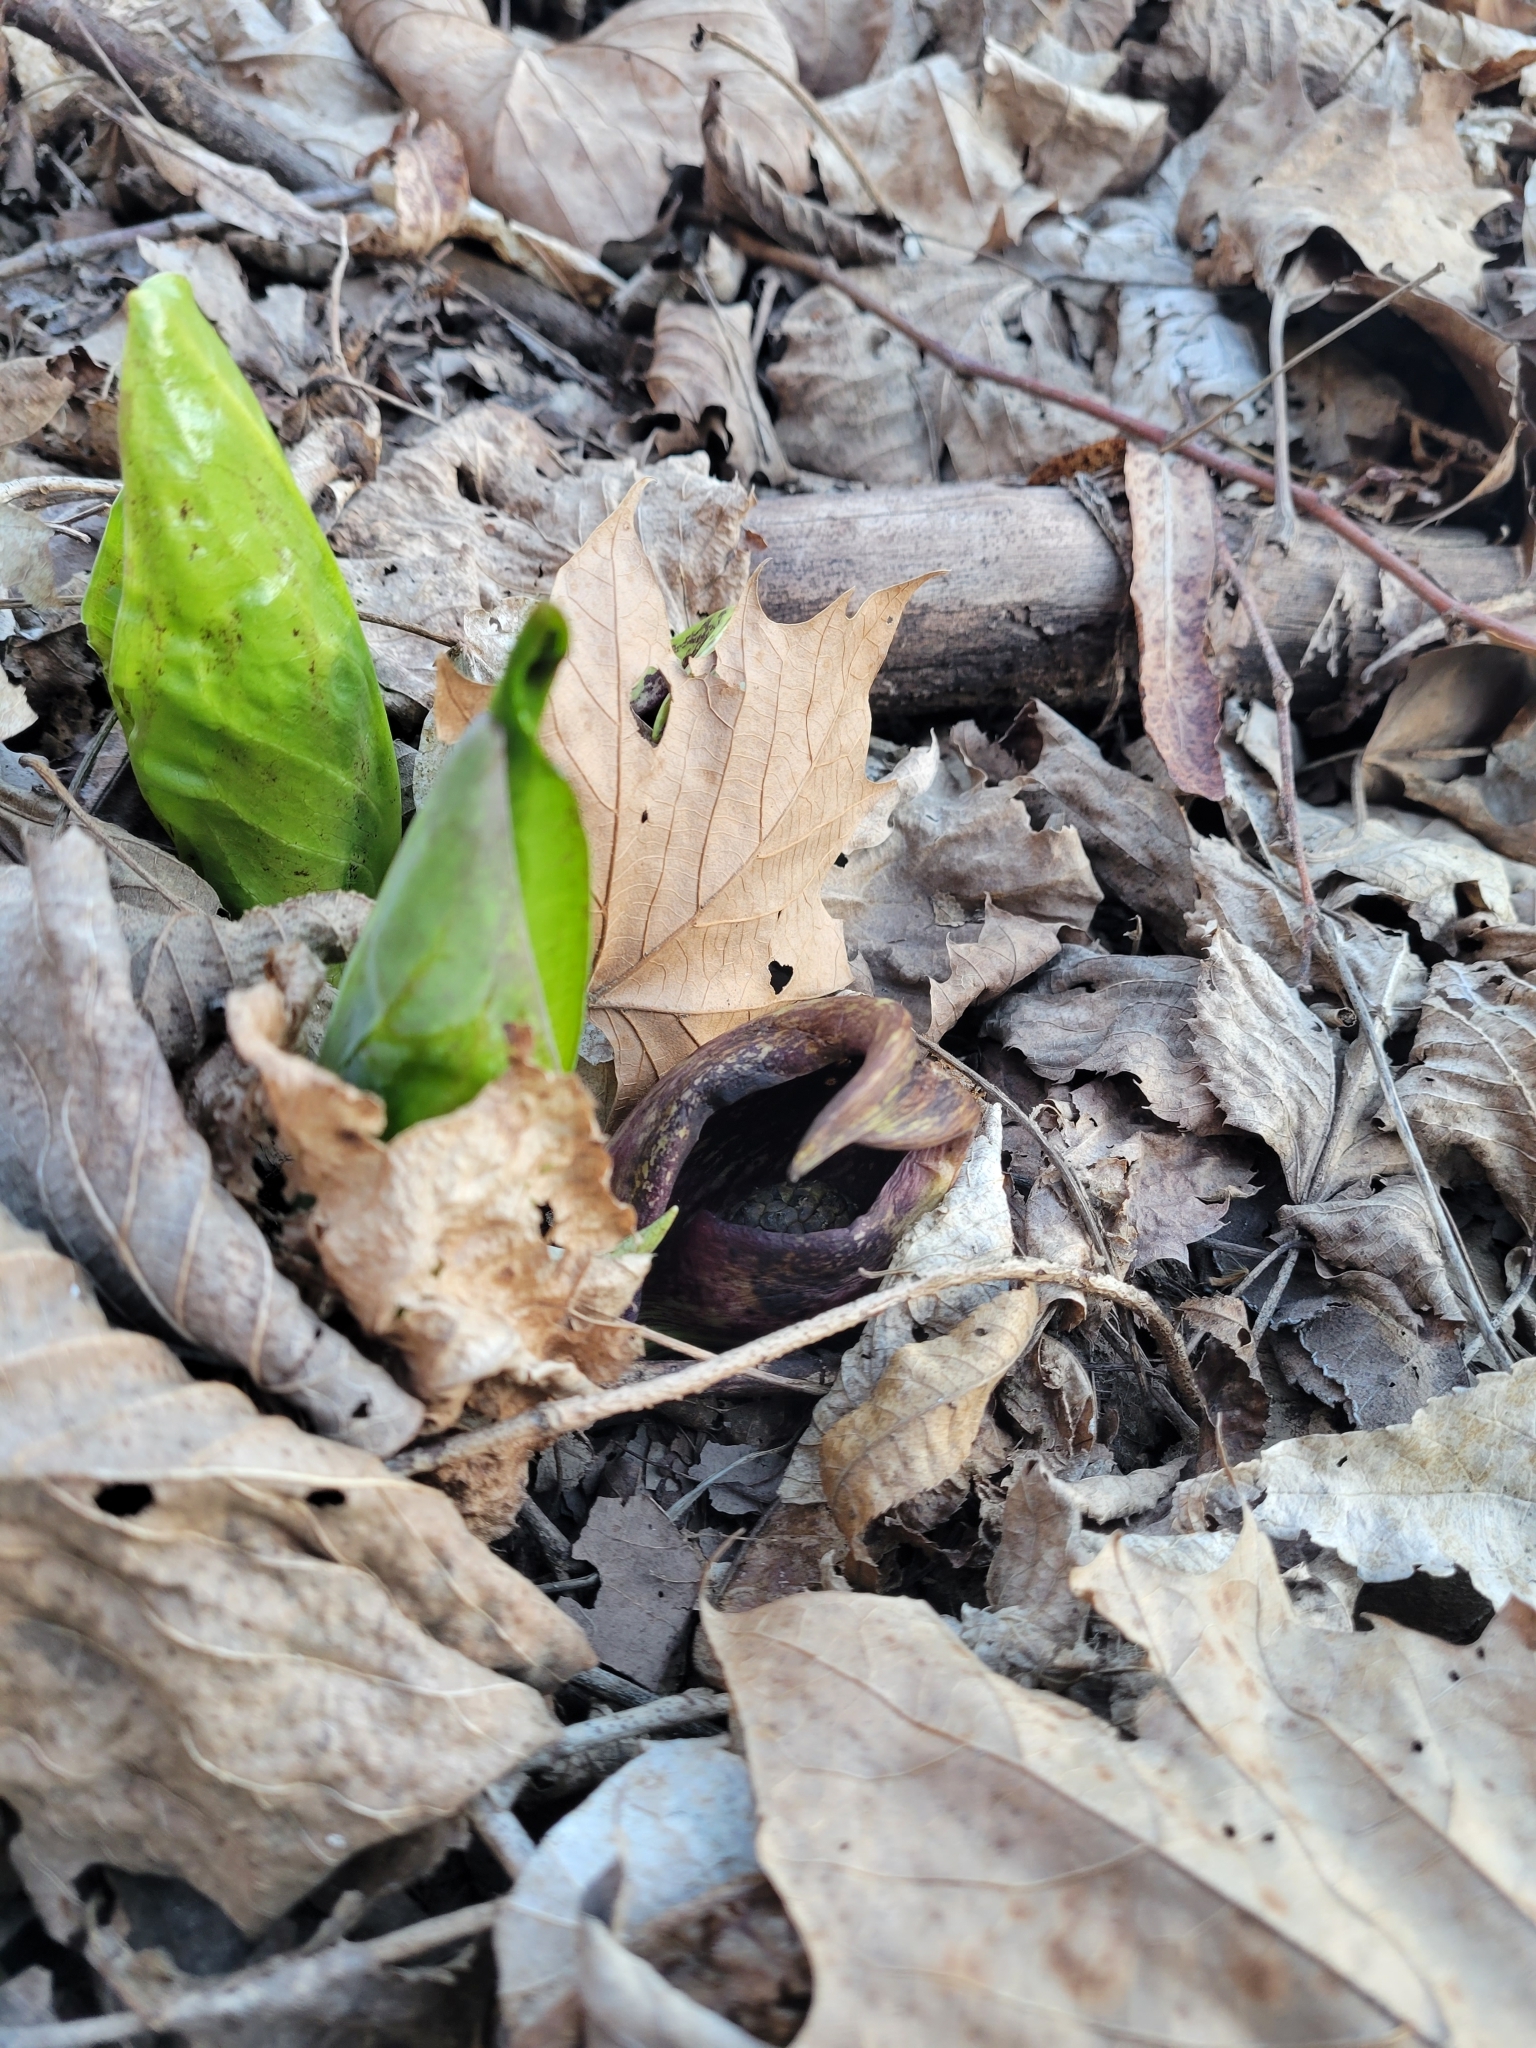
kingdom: Plantae
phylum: Tracheophyta
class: Liliopsida
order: Alismatales
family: Araceae
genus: Symplocarpus
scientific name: Symplocarpus foetidus
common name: Eastern skunk cabbage
